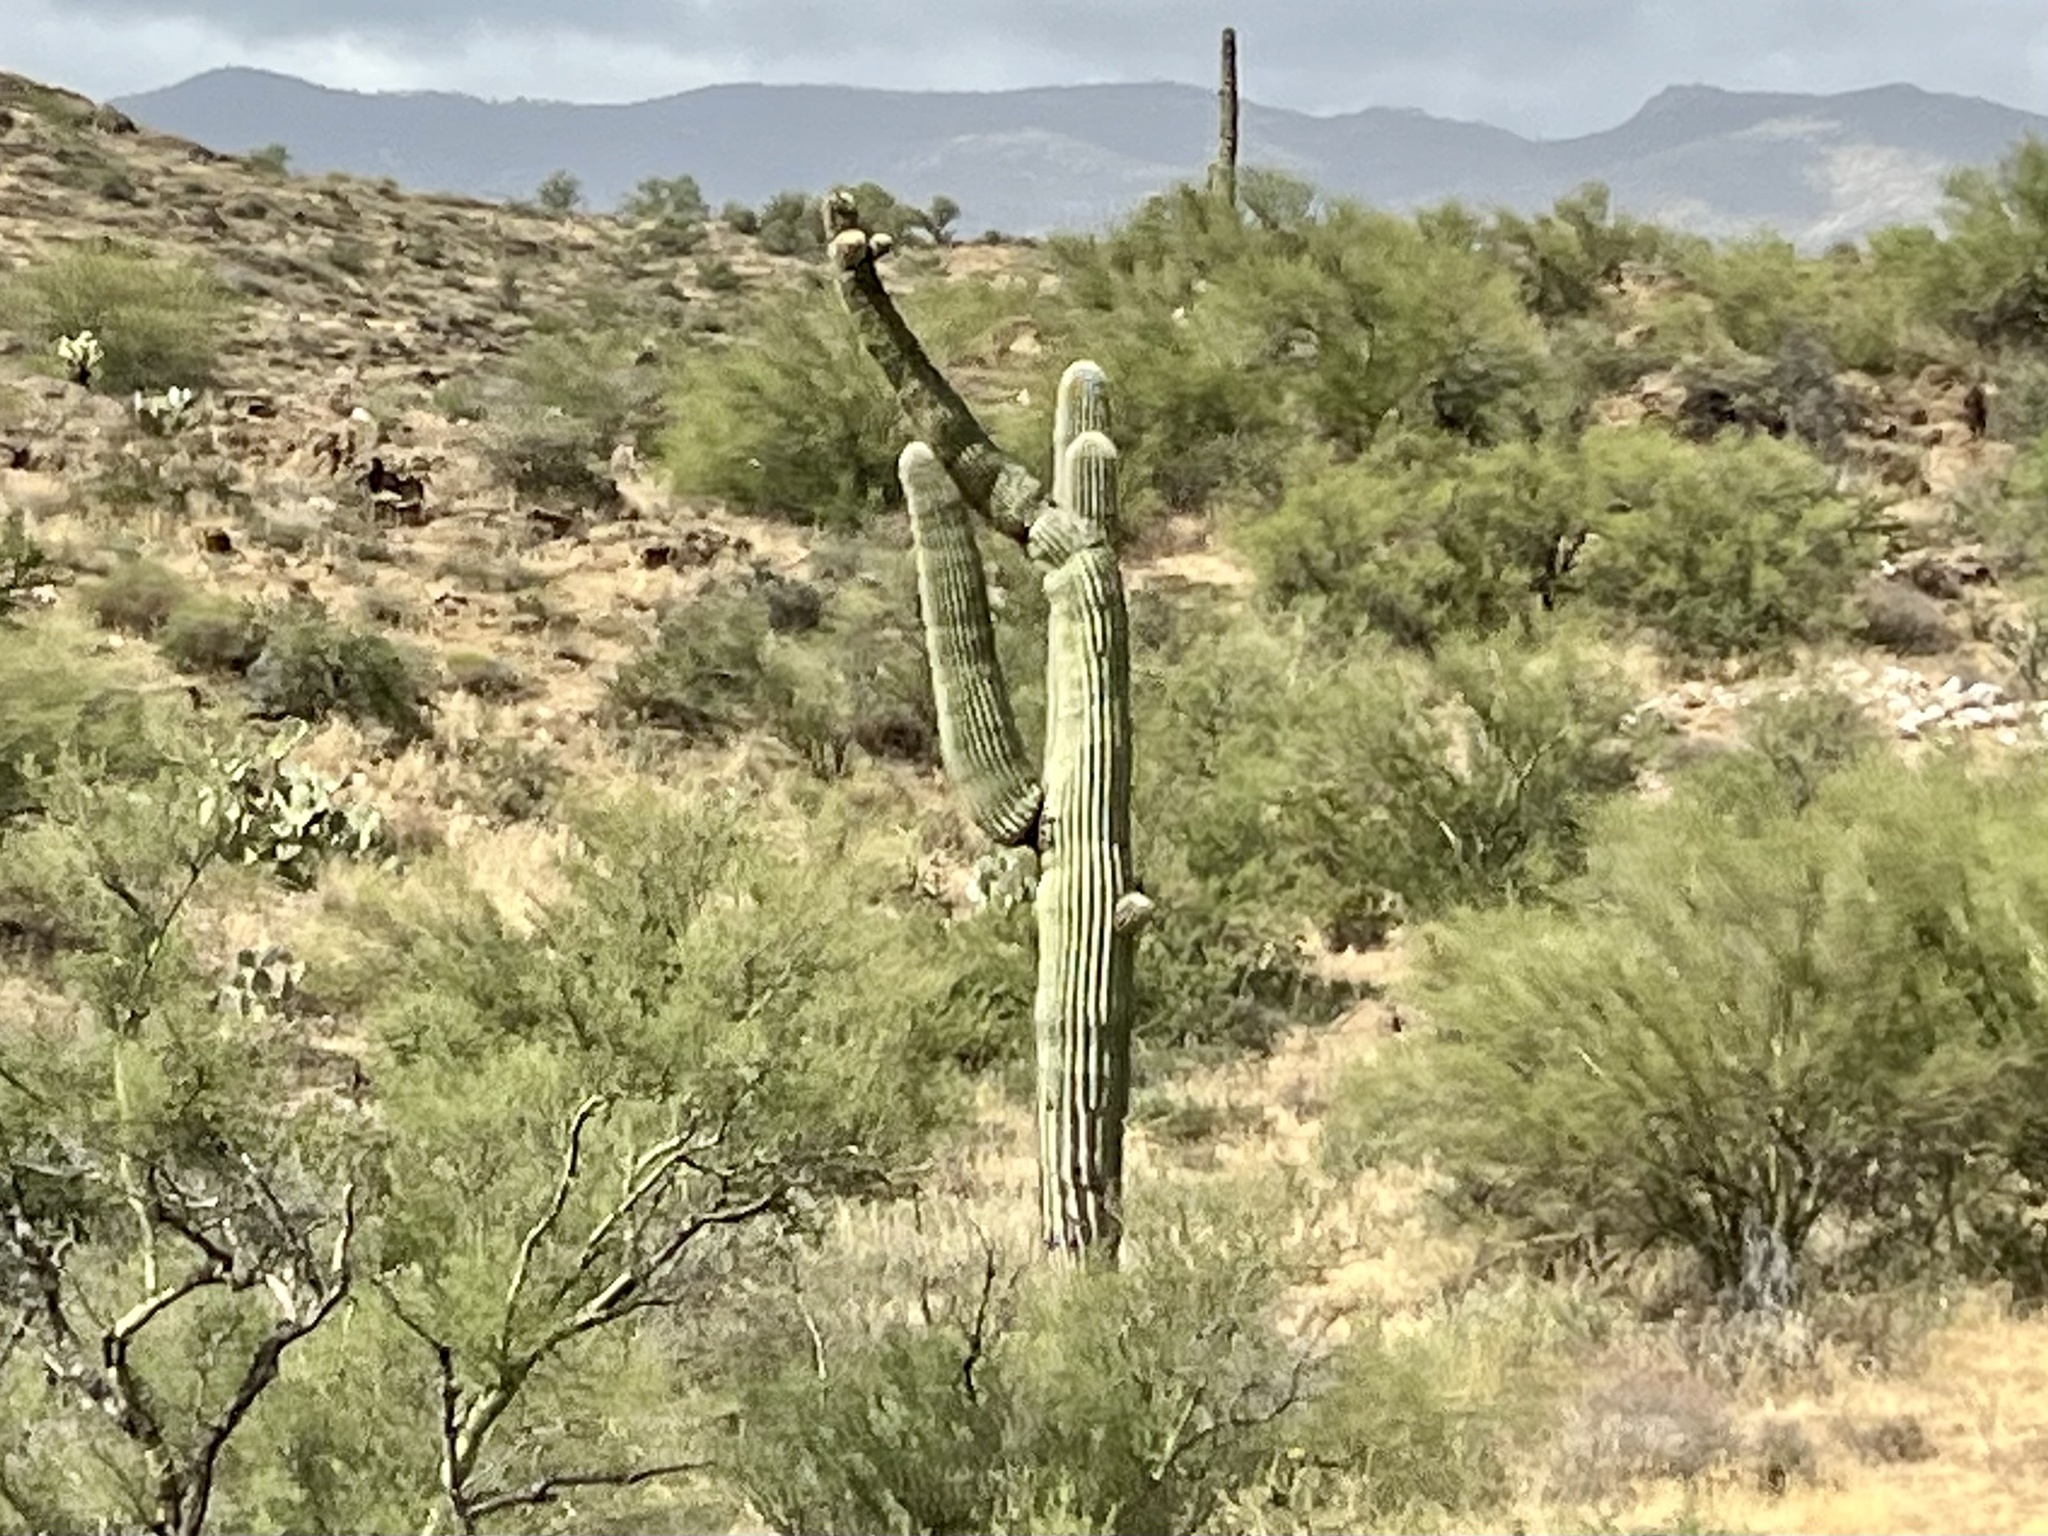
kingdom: Plantae
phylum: Tracheophyta
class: Magnoliopsida
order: Caryophyllales
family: Cactaceae
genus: Carnegiea
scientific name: Carnegiea gigantea
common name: Saguaro
